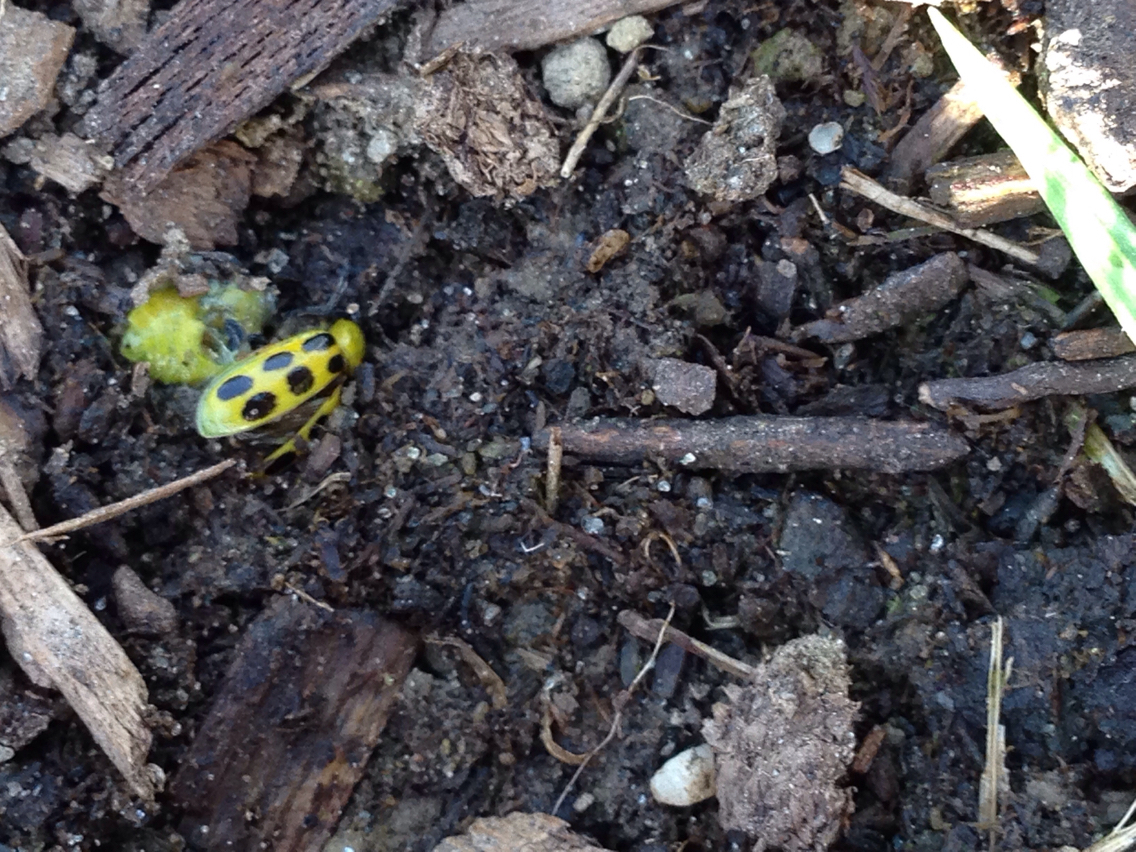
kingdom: Animalia
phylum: Arthropoda
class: Insecta
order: Coleoptera
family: Chrysomelidae
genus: Diabrotica
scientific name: Diabrotica undecimpunctata
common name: Spotted cucumber beetle
